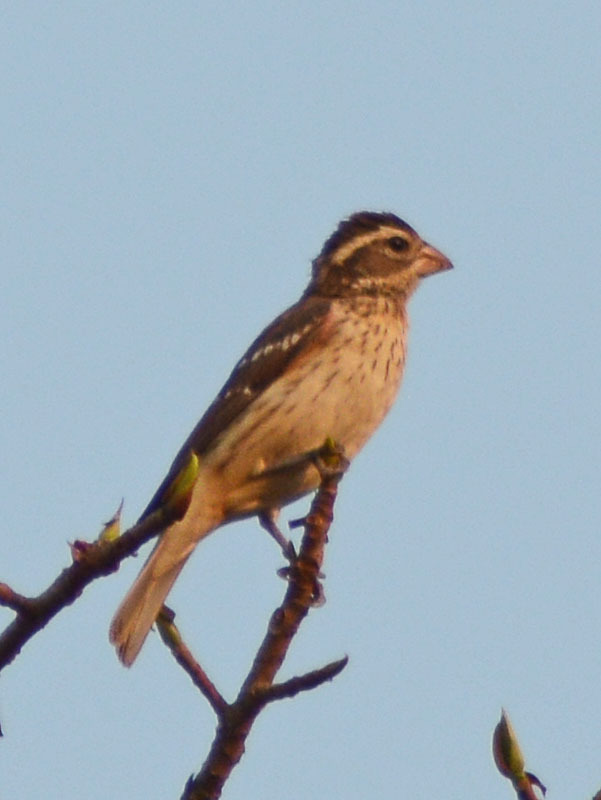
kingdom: Animalia
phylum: Chordata
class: Aves
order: Passeriformes
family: Cardinalidae
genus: Pheucticus
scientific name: Pheucticus ludovicianus
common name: Rose-breasted grosbeak
